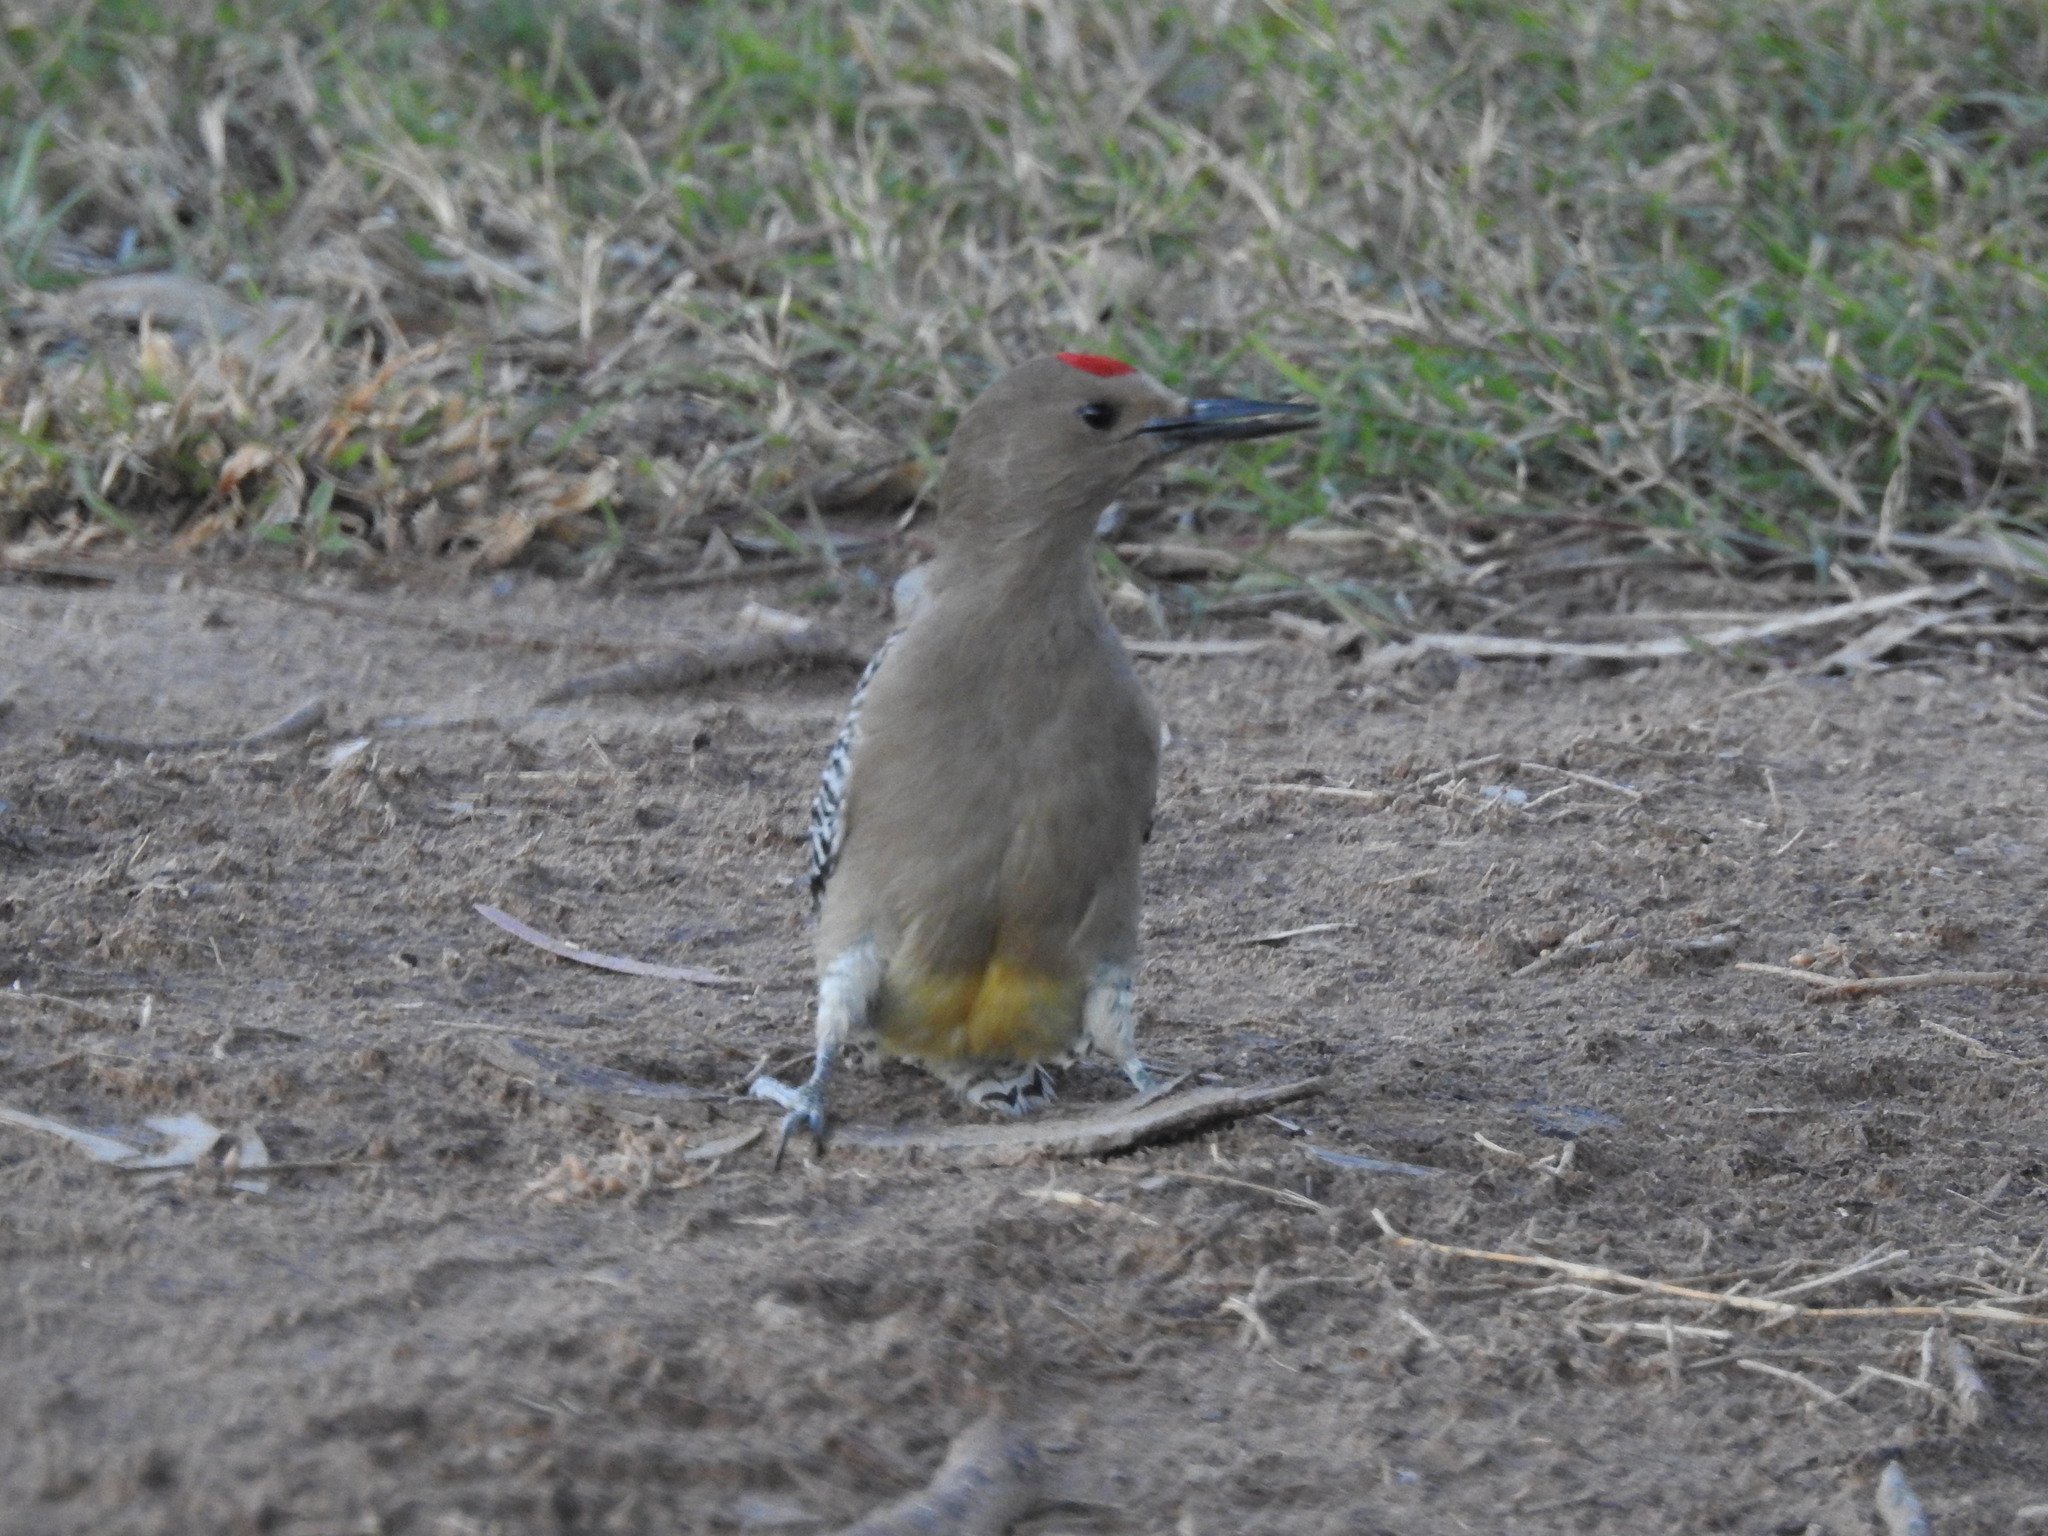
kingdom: Animalia
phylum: Chordata
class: Aves
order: Piciformes
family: Picidae
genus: Melanerpes
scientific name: Melanerpes uropygialis
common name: Gila woodpecker
